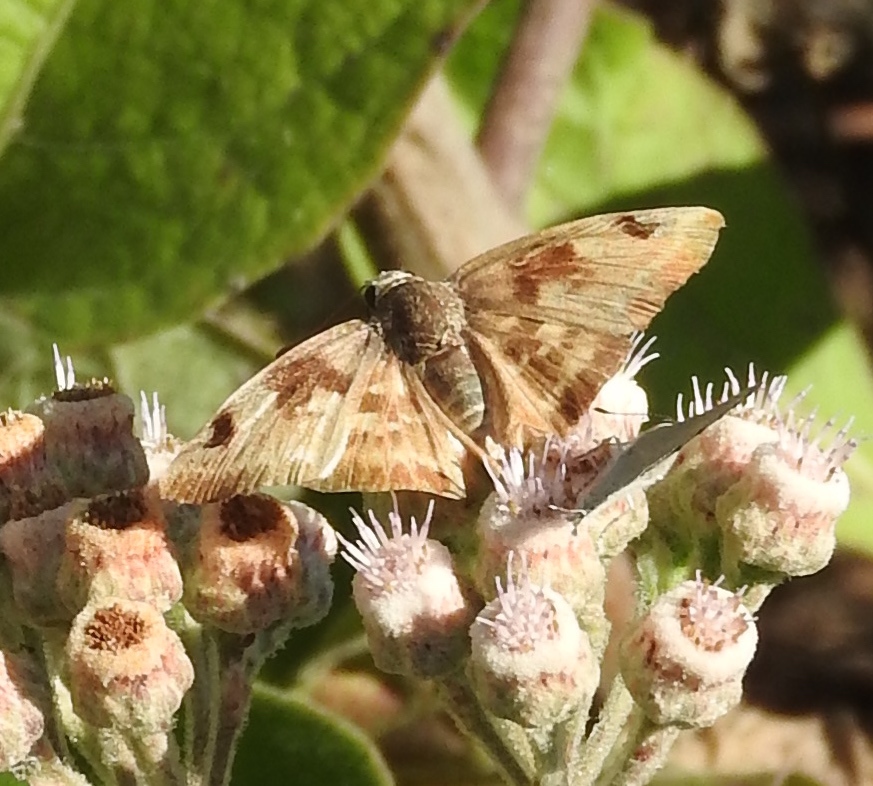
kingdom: Animalia
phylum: Arthropoda
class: Insecta
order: Lepidoptera
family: Hesperiidae
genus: Arteurotia
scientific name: Arteurotia tractipennis
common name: Starred skipper
